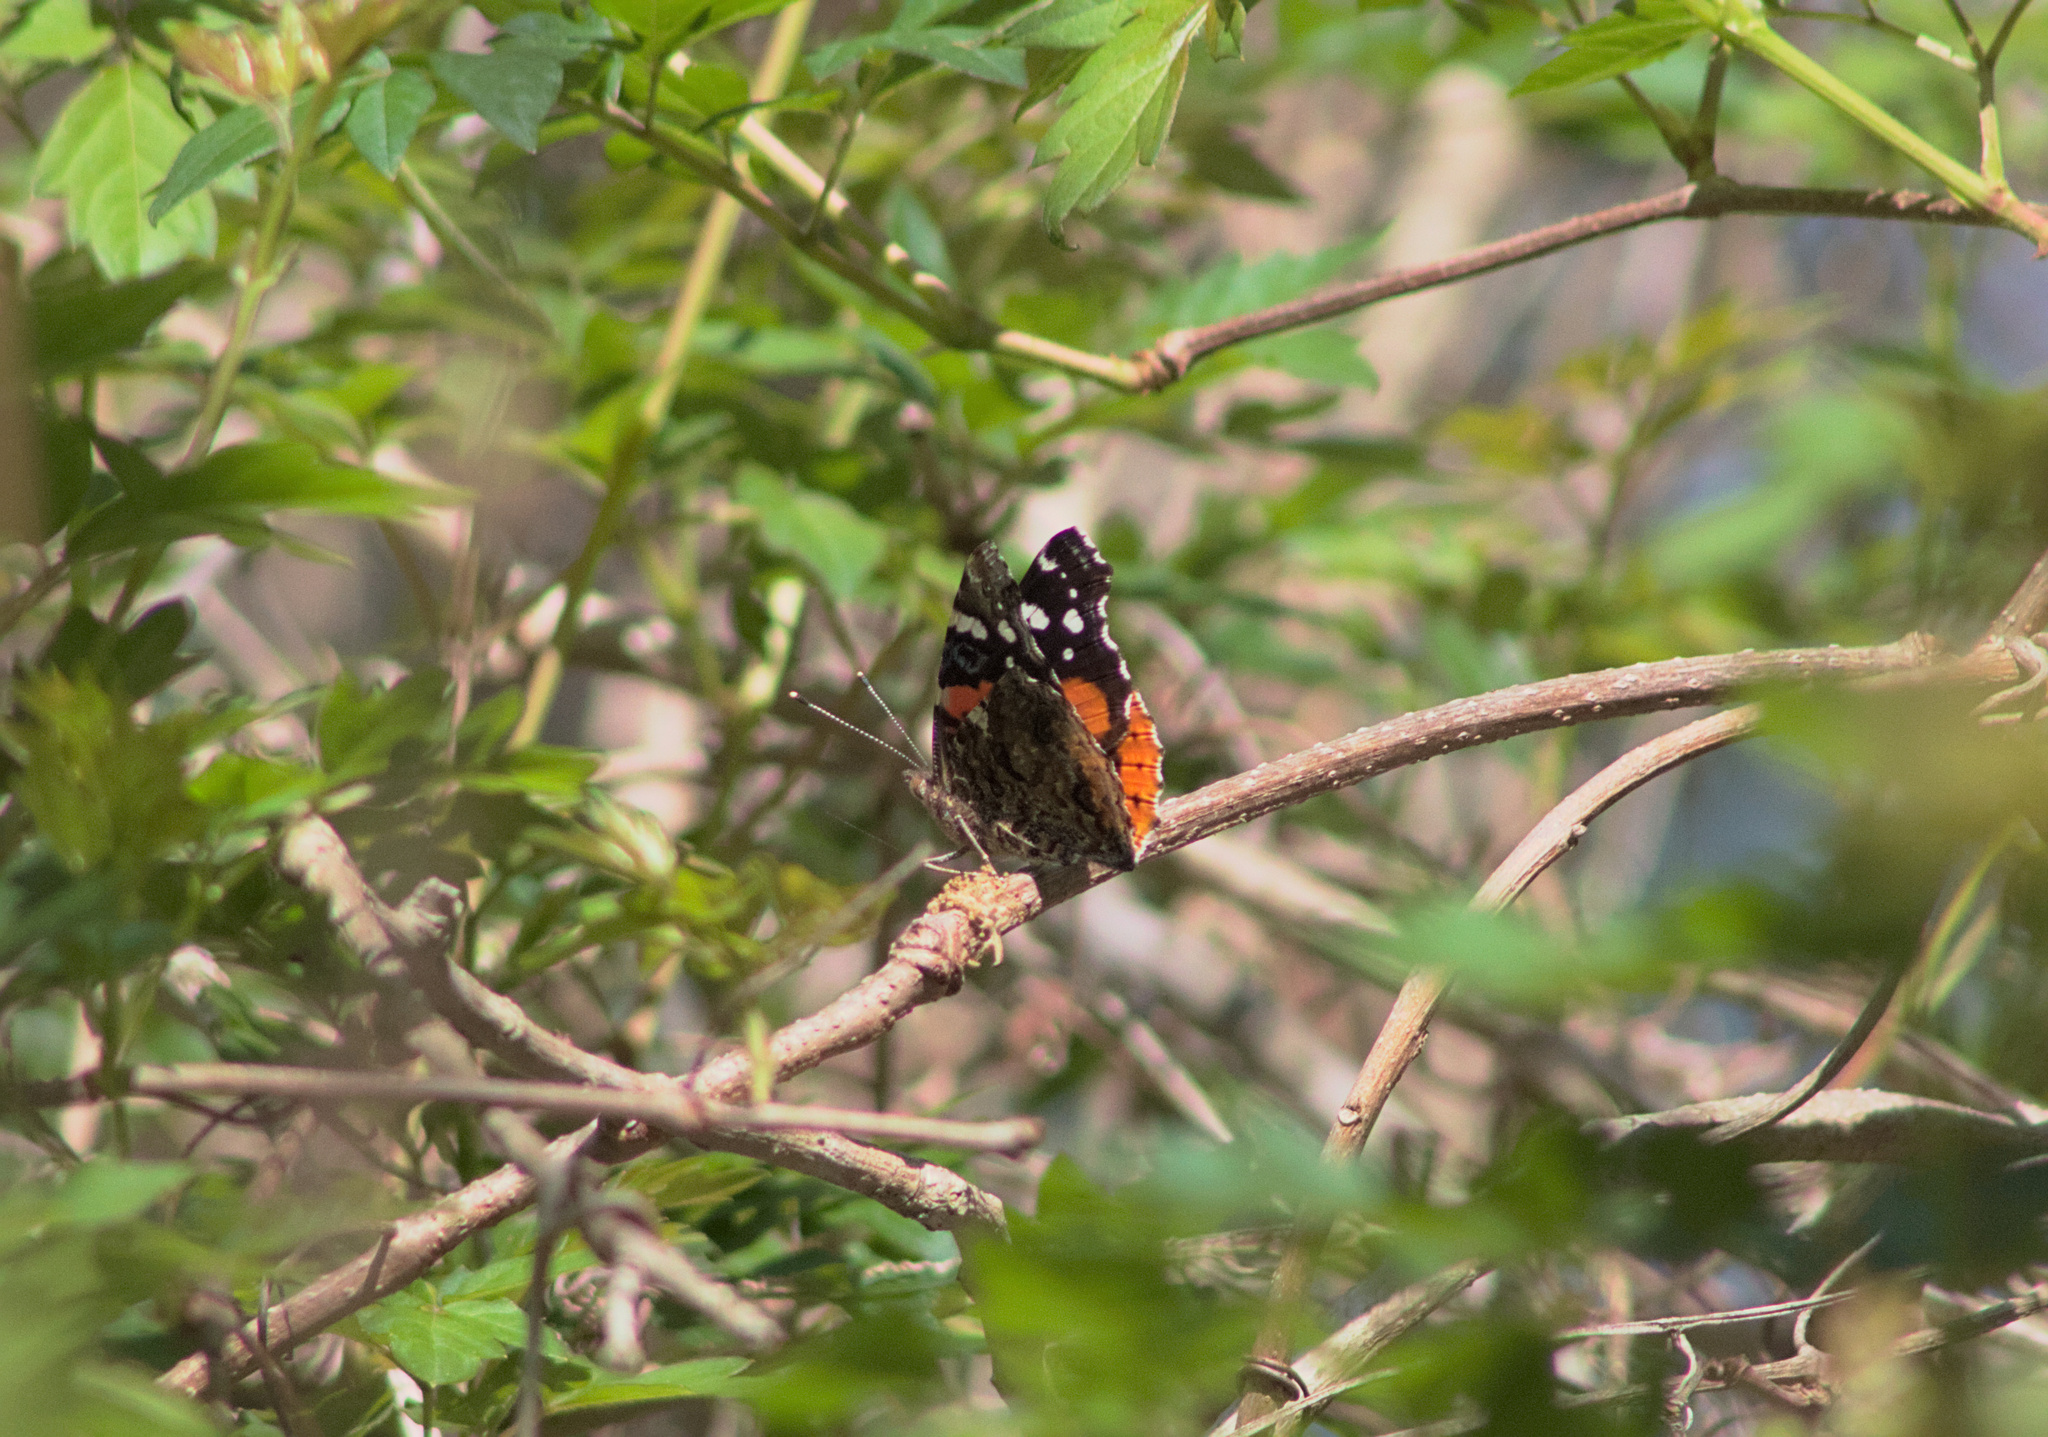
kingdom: Animalia
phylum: Arthropoda
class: Insecta
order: Lepidoptera
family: Nymphalidae
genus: Vanessa
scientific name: Vanessa atalanta
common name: Red admiral
